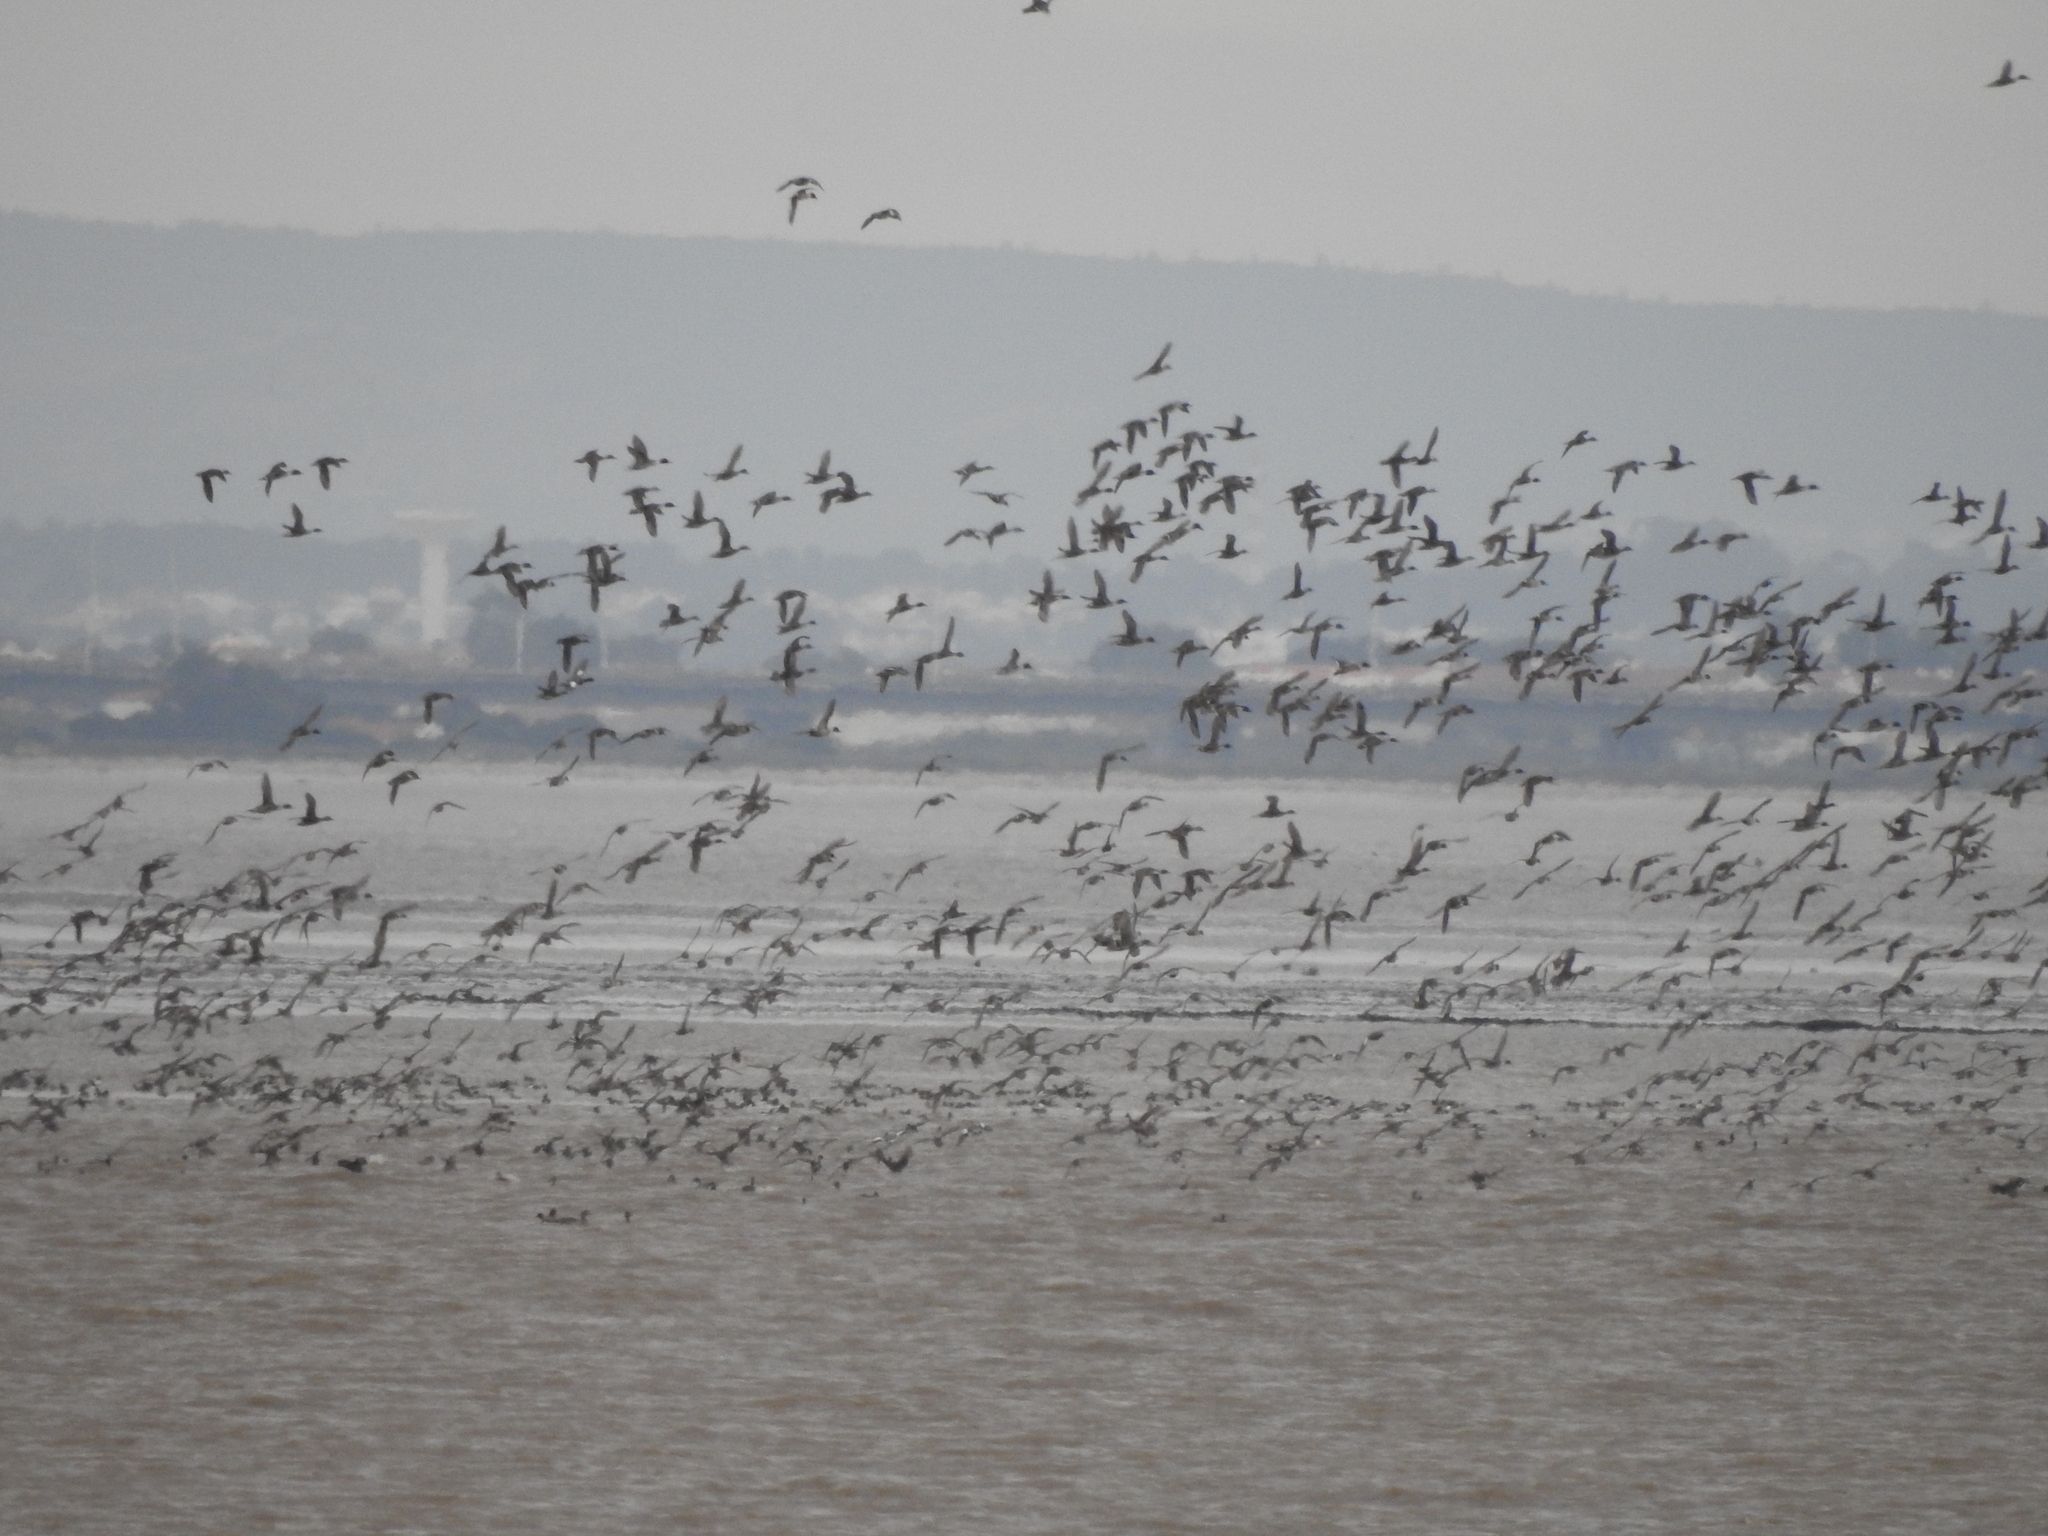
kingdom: Animalia
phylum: Chordata
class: Aves
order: Anseriformes
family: Anatidae
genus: Anas
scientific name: Anas acuta
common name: Northern pintail
